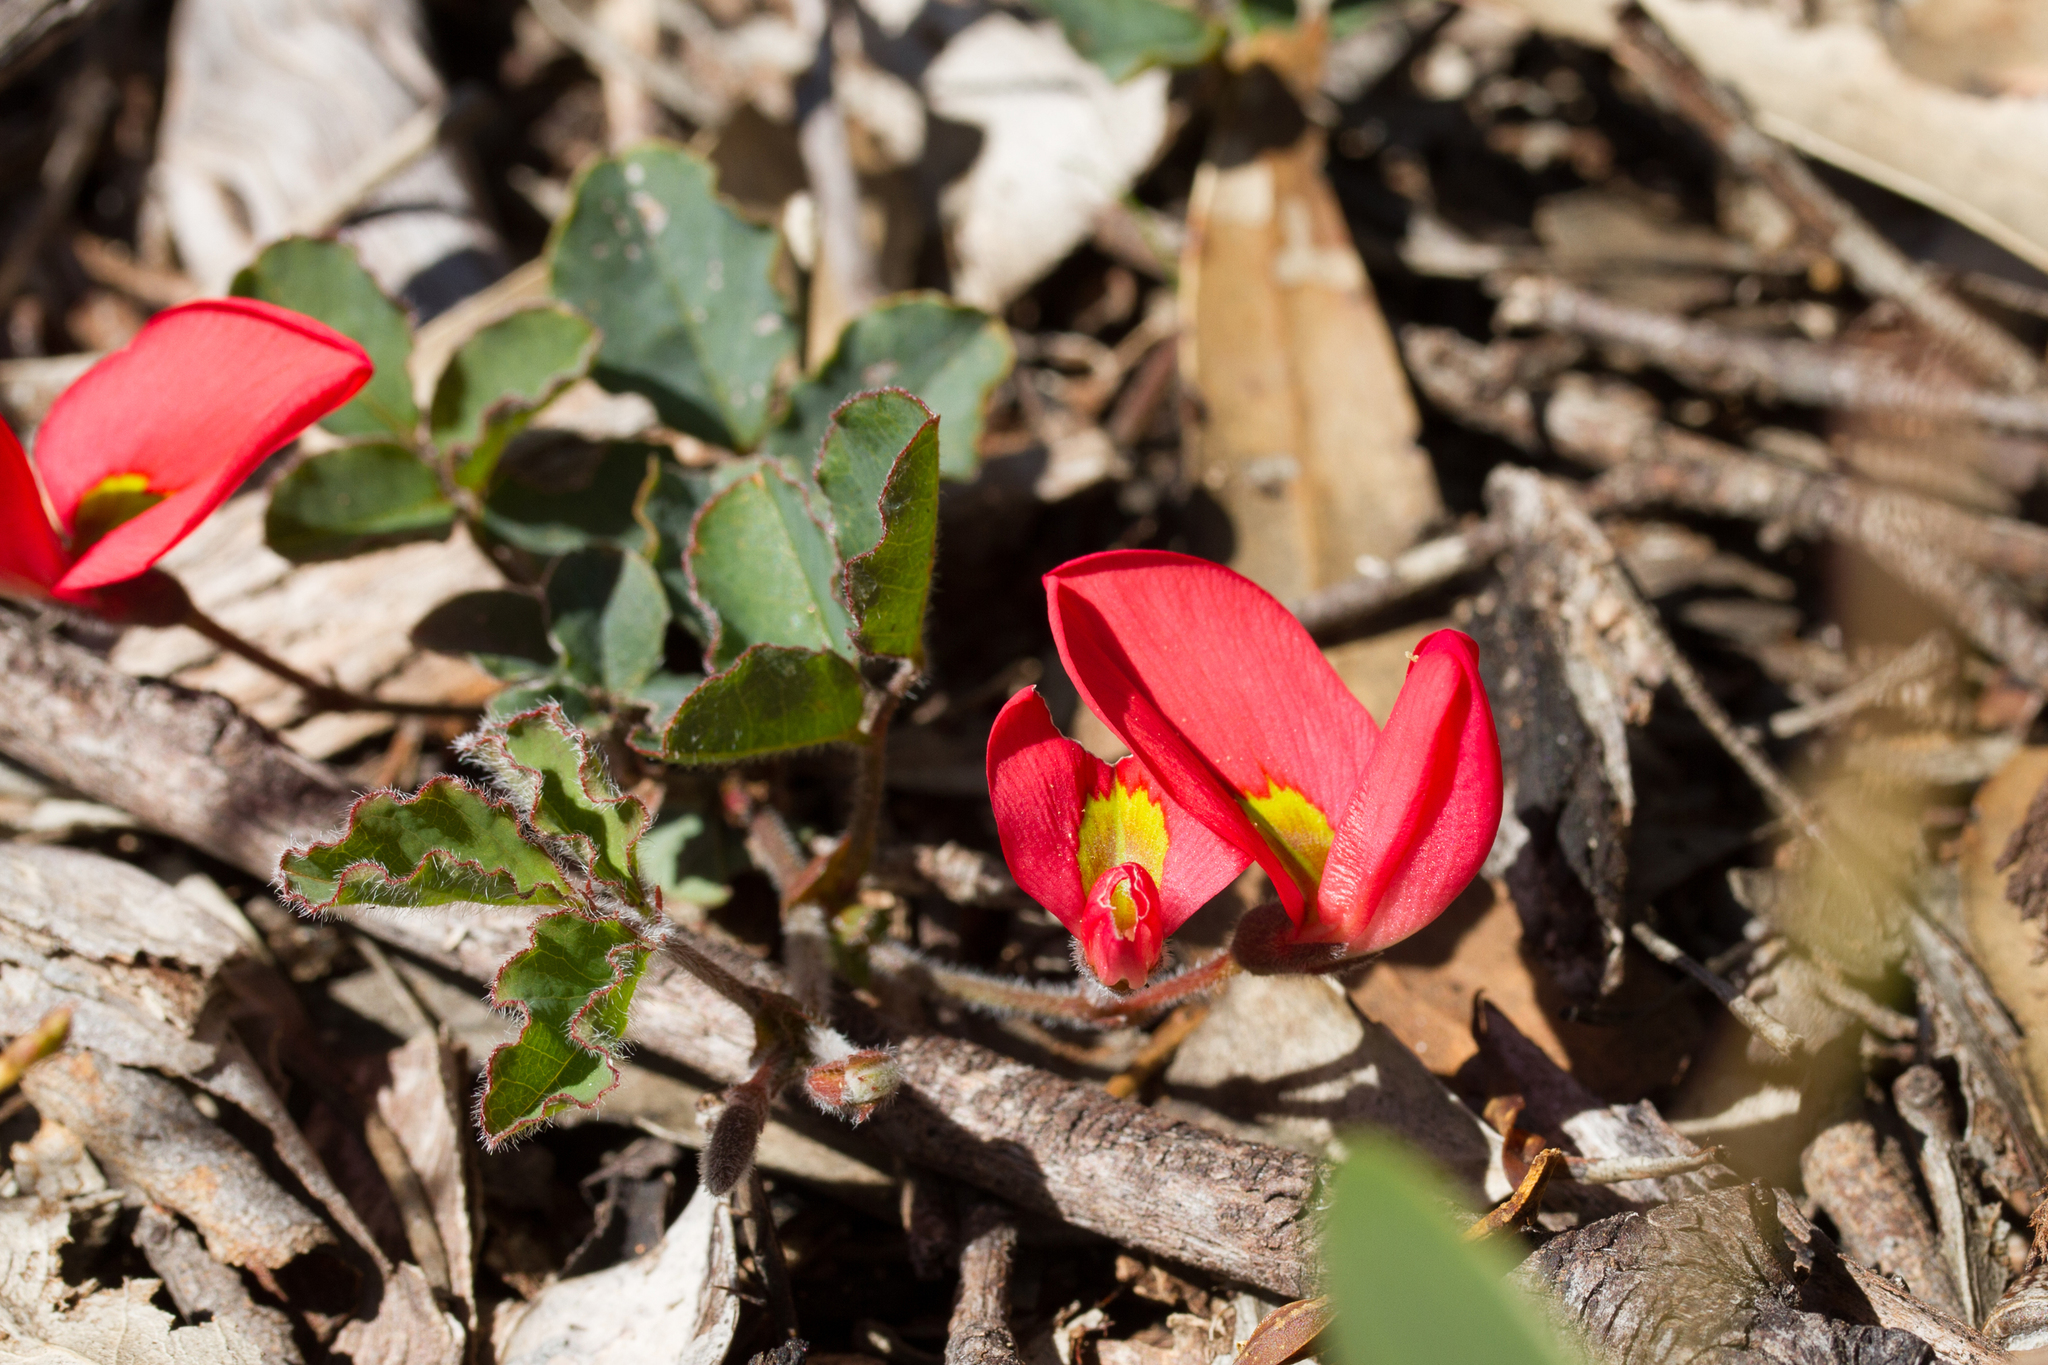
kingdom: Plantae
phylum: Tracheophyta
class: Magnoliopsida
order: Fabales
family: Fabaceae
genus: Kennedia
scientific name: Kennedia prostrata
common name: Running-postman
